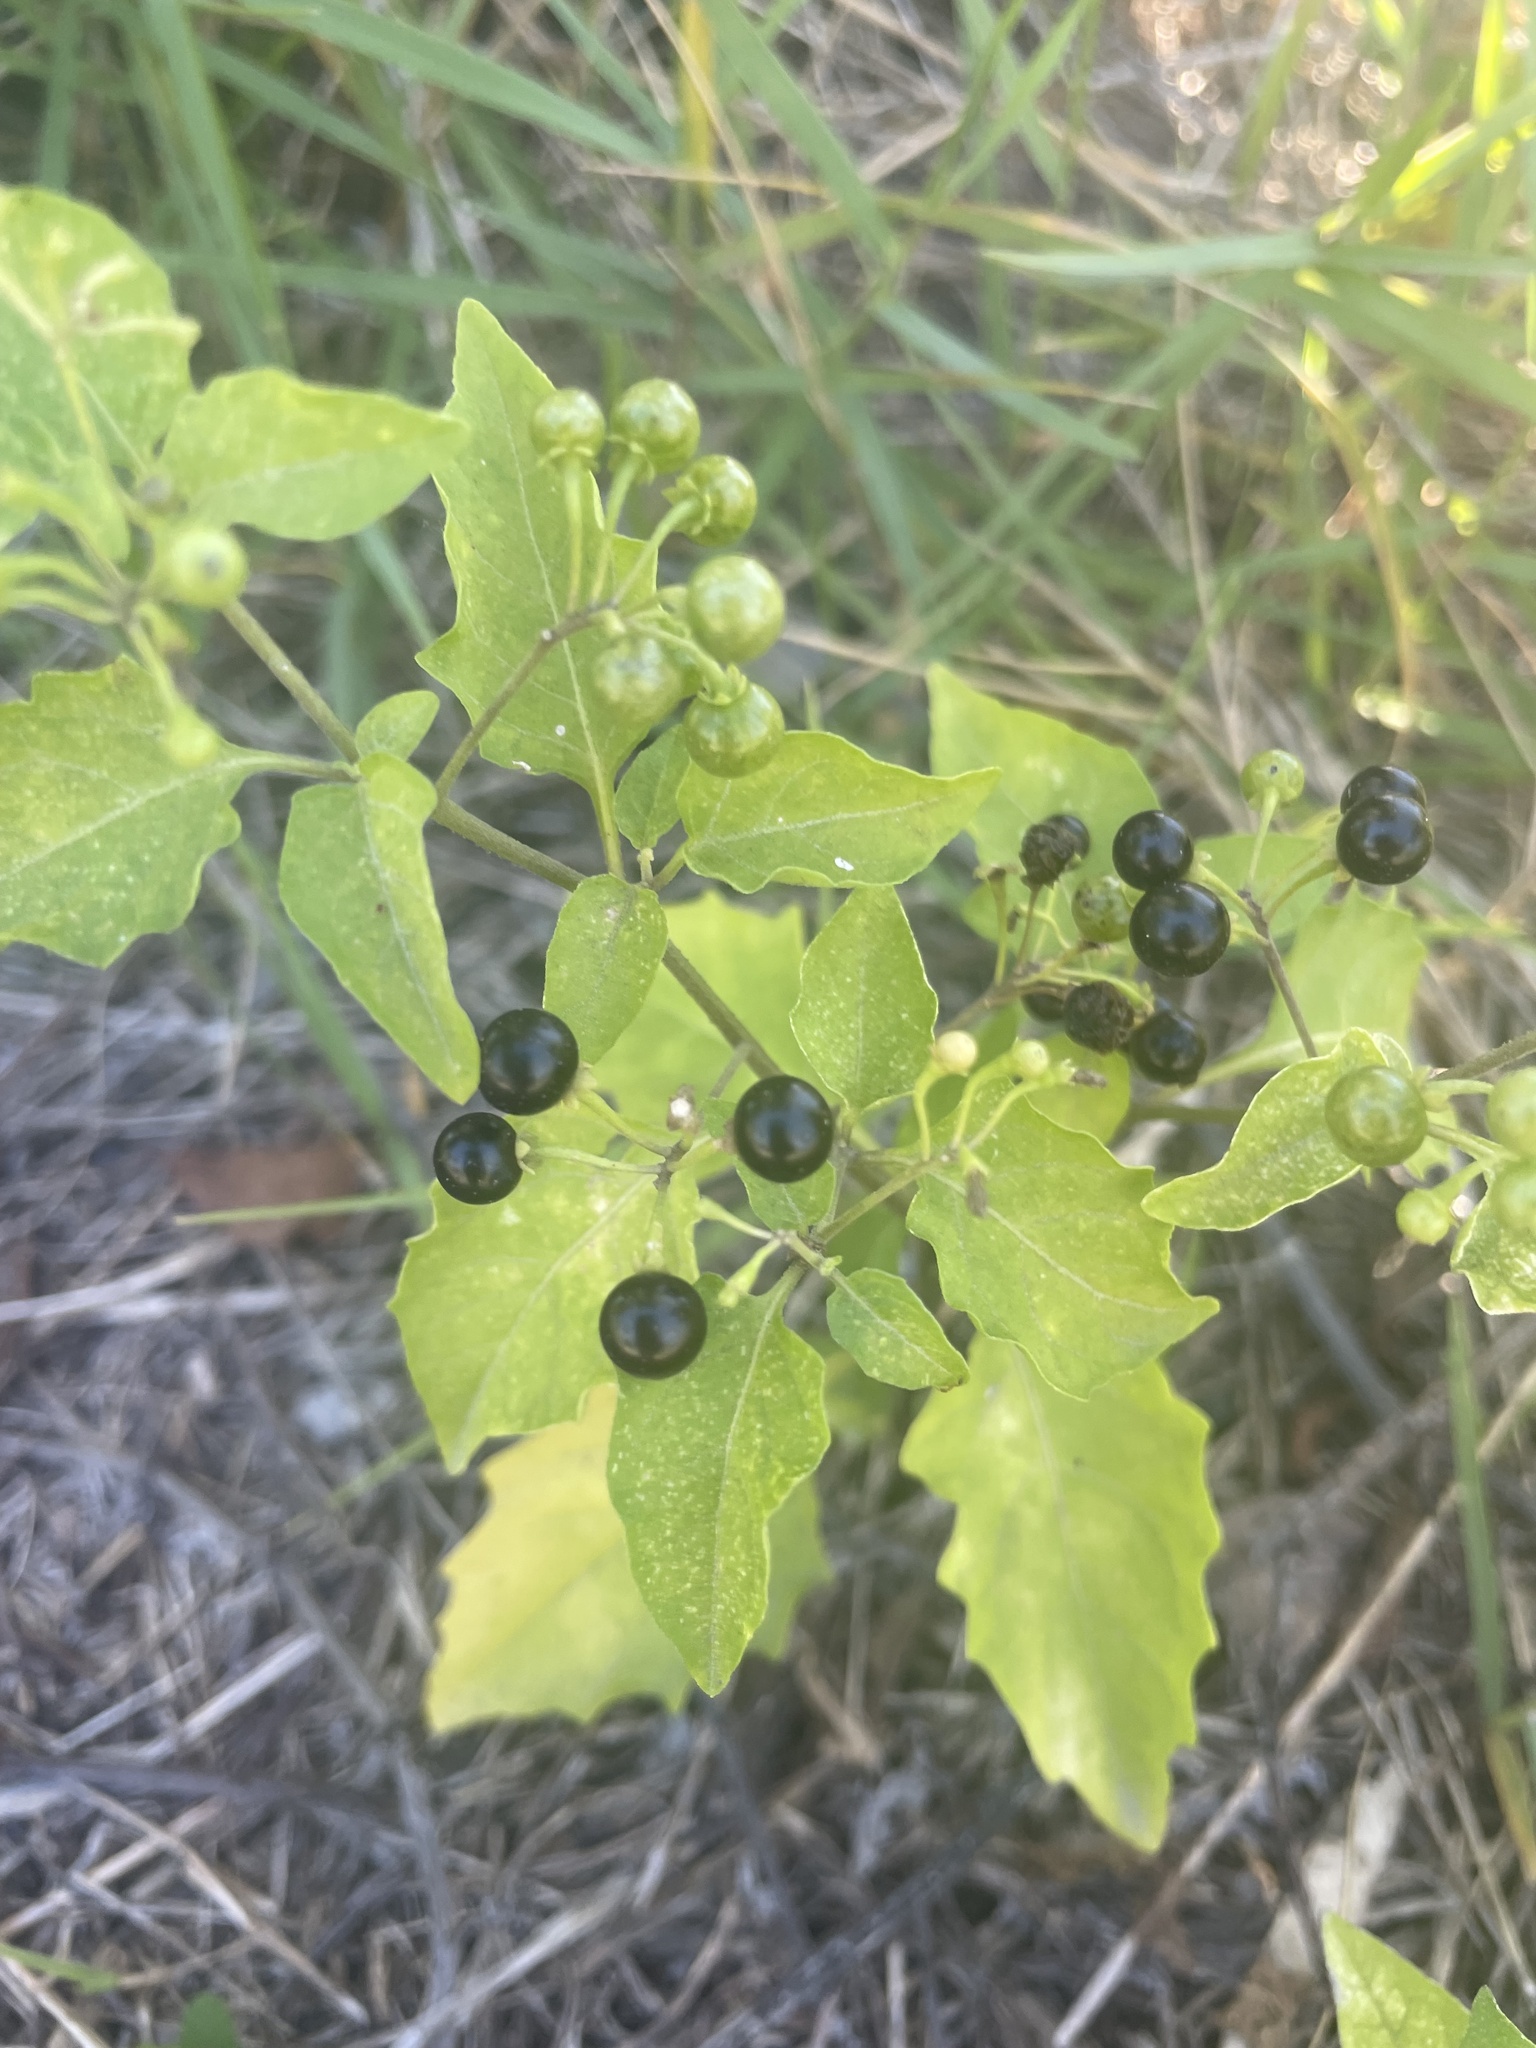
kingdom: Plantae
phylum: Tracheophyta
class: Magnoliopsida
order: Solanales
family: Solanaceae
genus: Solanum
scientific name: Solanum americanum
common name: American black nightshade
